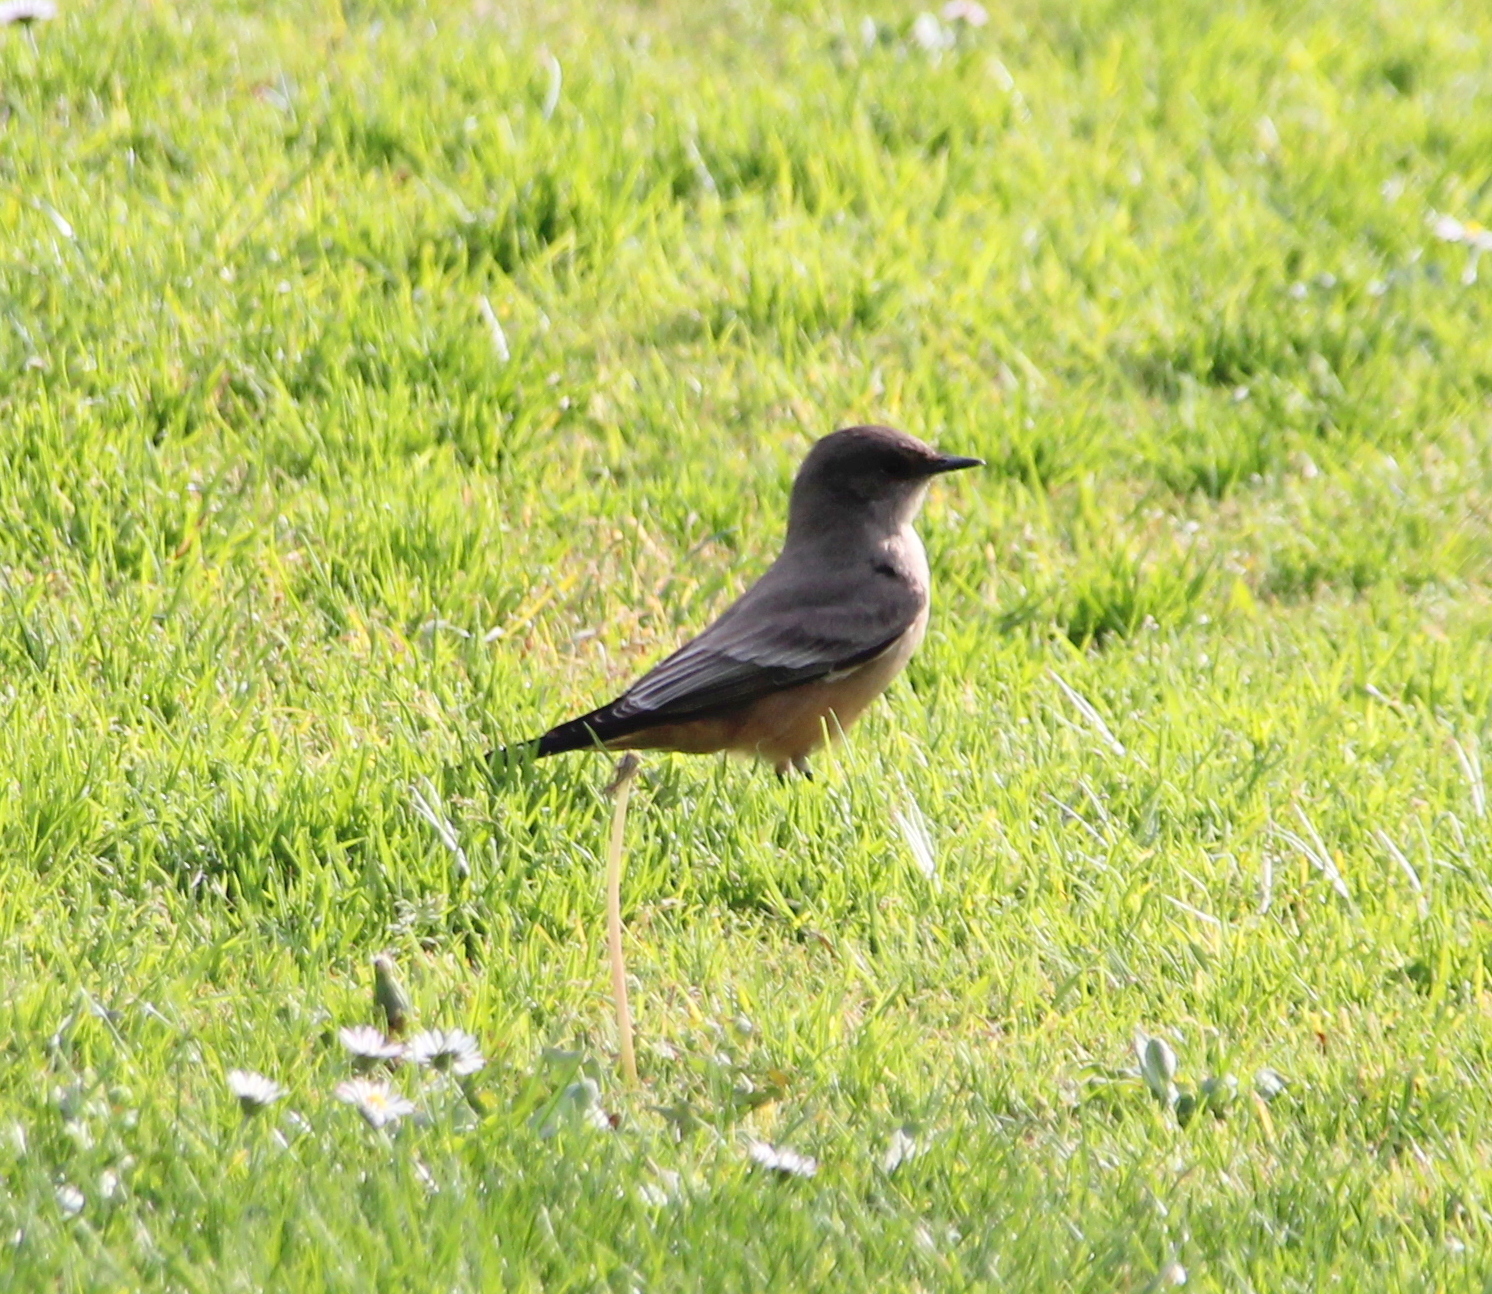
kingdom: Animalia
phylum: Chordata
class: Aves
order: Passeriformes
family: Tyrannidae
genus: Sayornis
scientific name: Sayornis saya
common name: Say's phoebe
